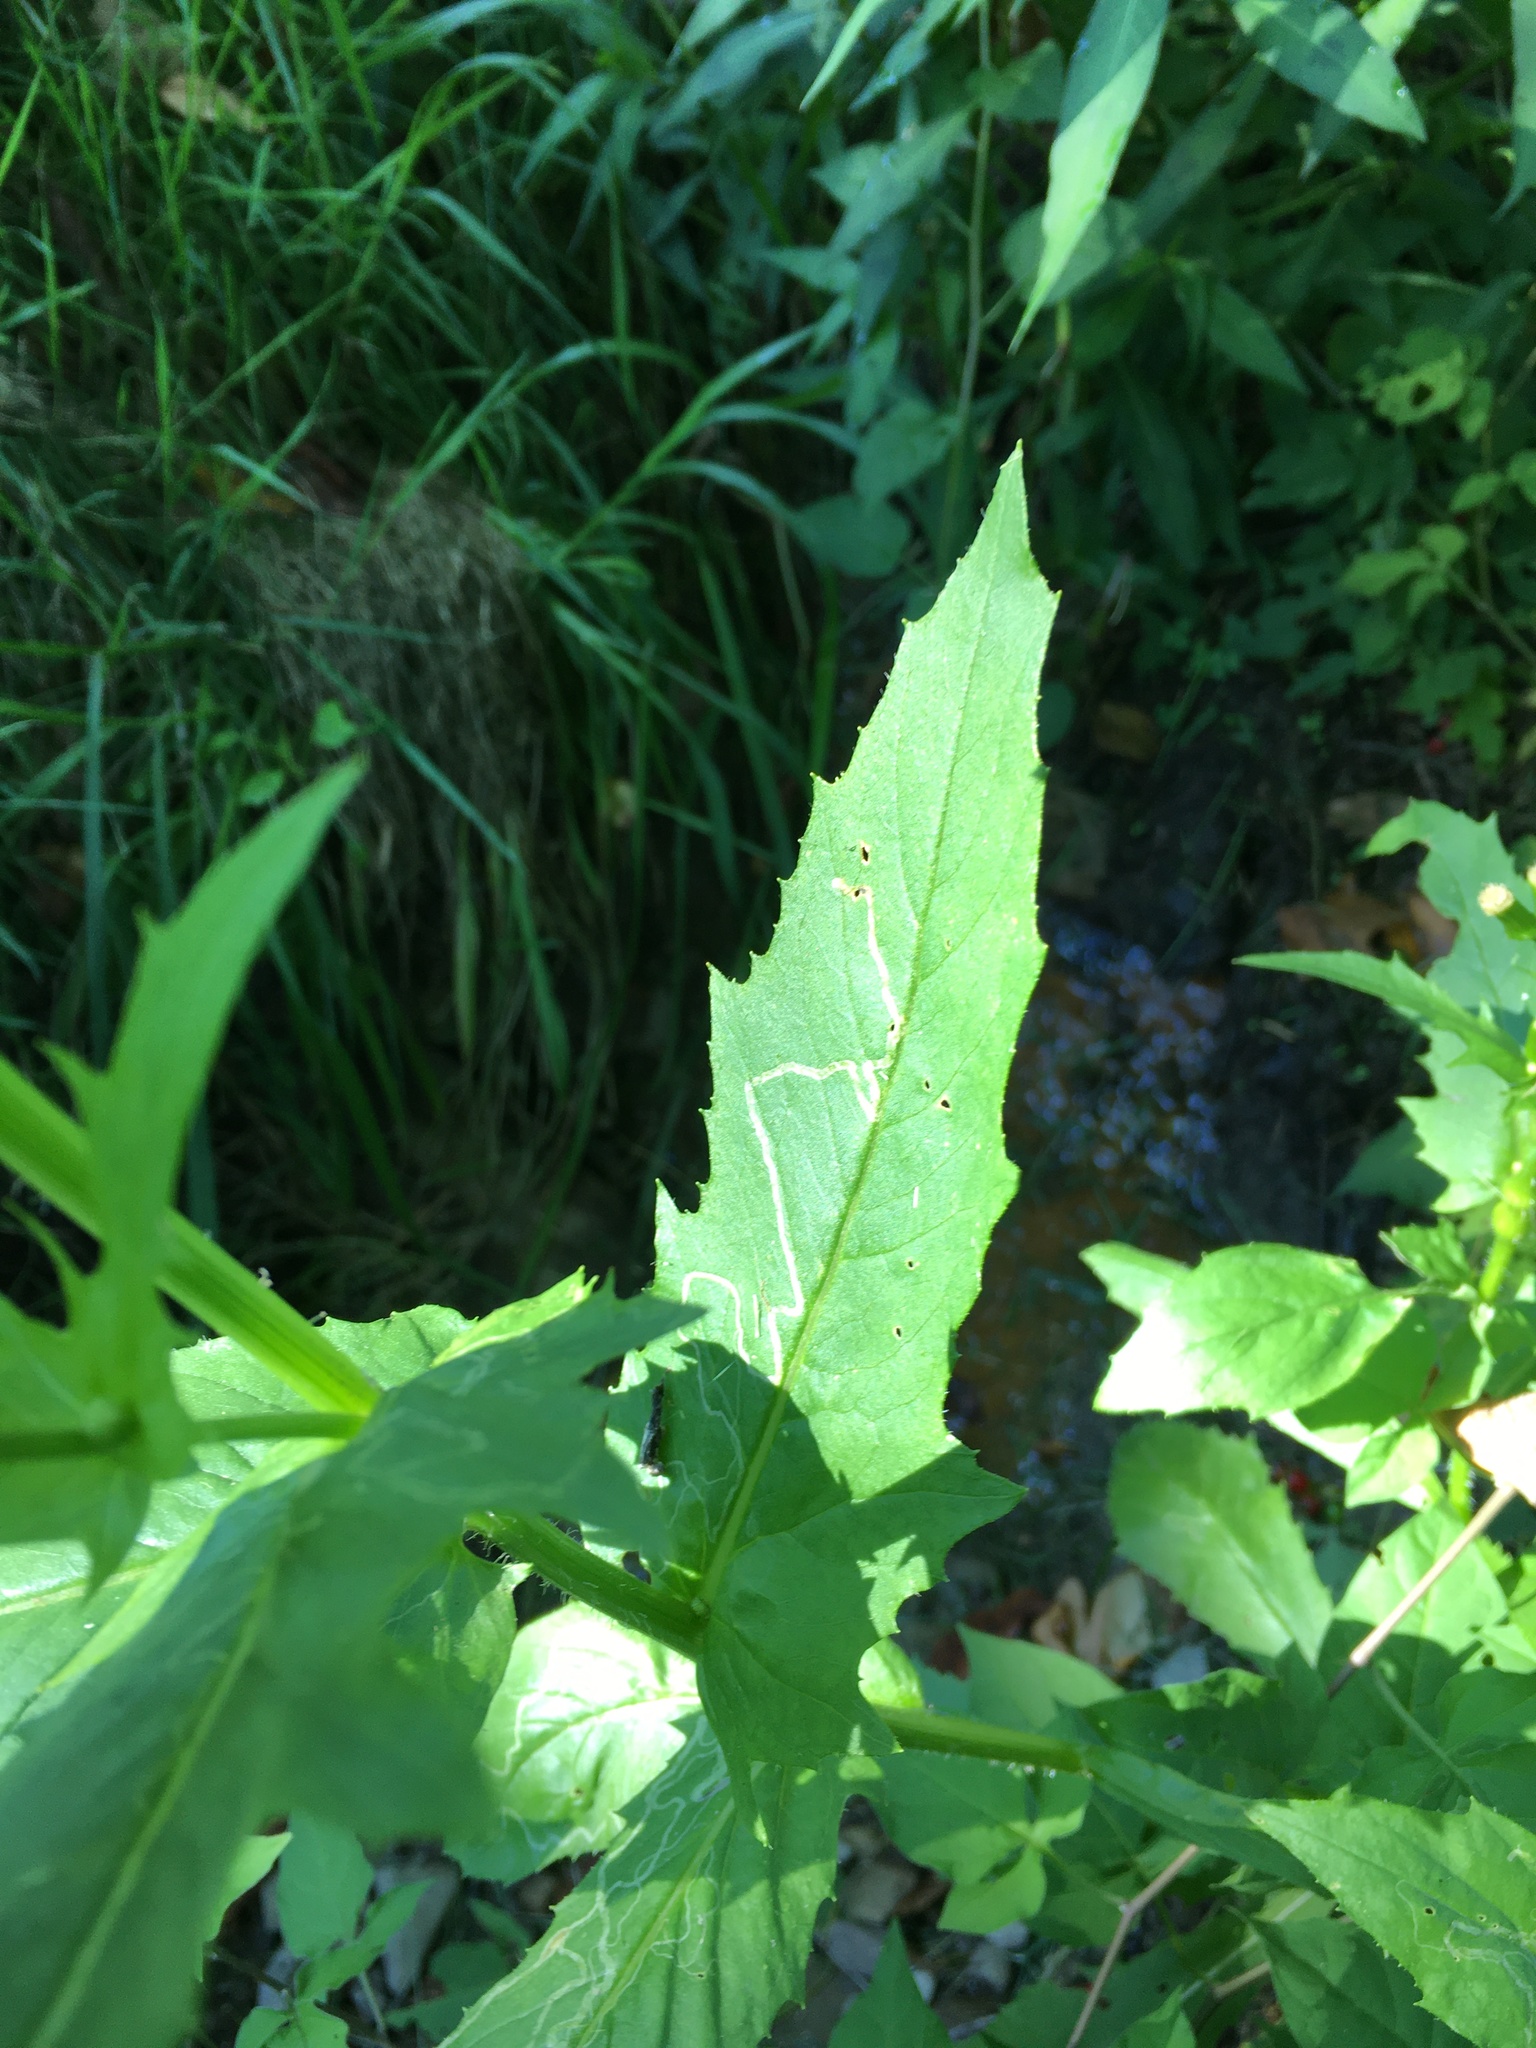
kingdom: Plantae
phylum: Tracheophyta
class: Magnoliopsida
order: Asterales
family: Asteraceae
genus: Erechtites
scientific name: Erechtites hieraciifolius
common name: American burnweed
